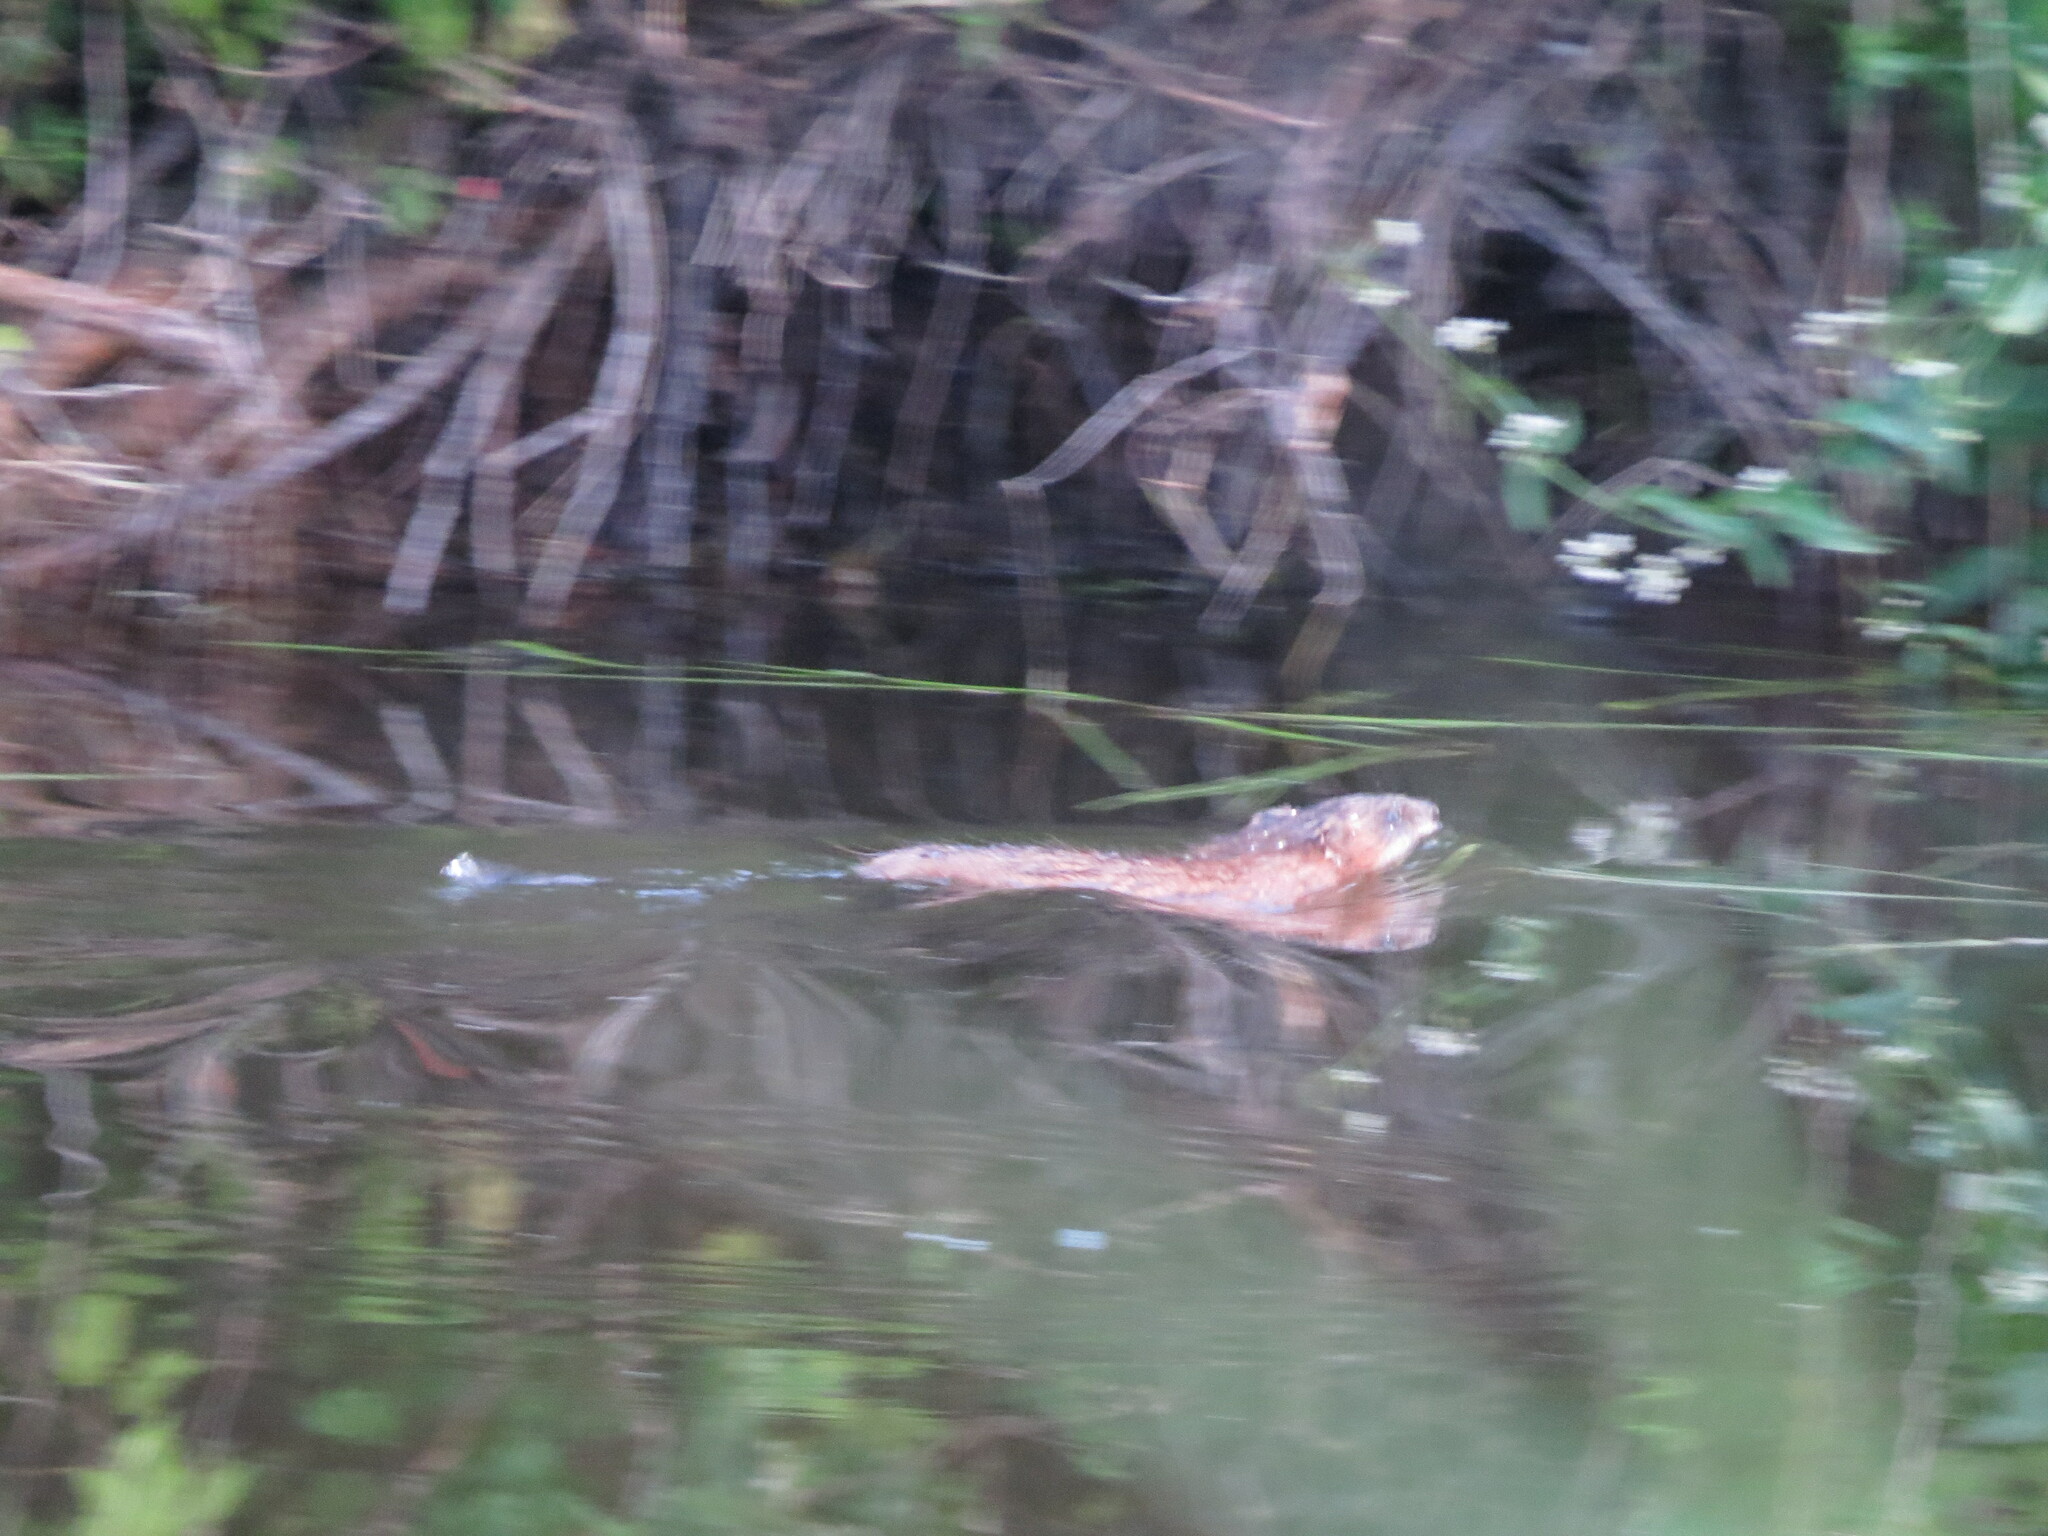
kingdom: Animalia
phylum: Chordata
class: Mammalia
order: Rodentia
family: Cricetidae
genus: Ondatra
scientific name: Ondatra zibethicus
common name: Muskrat
